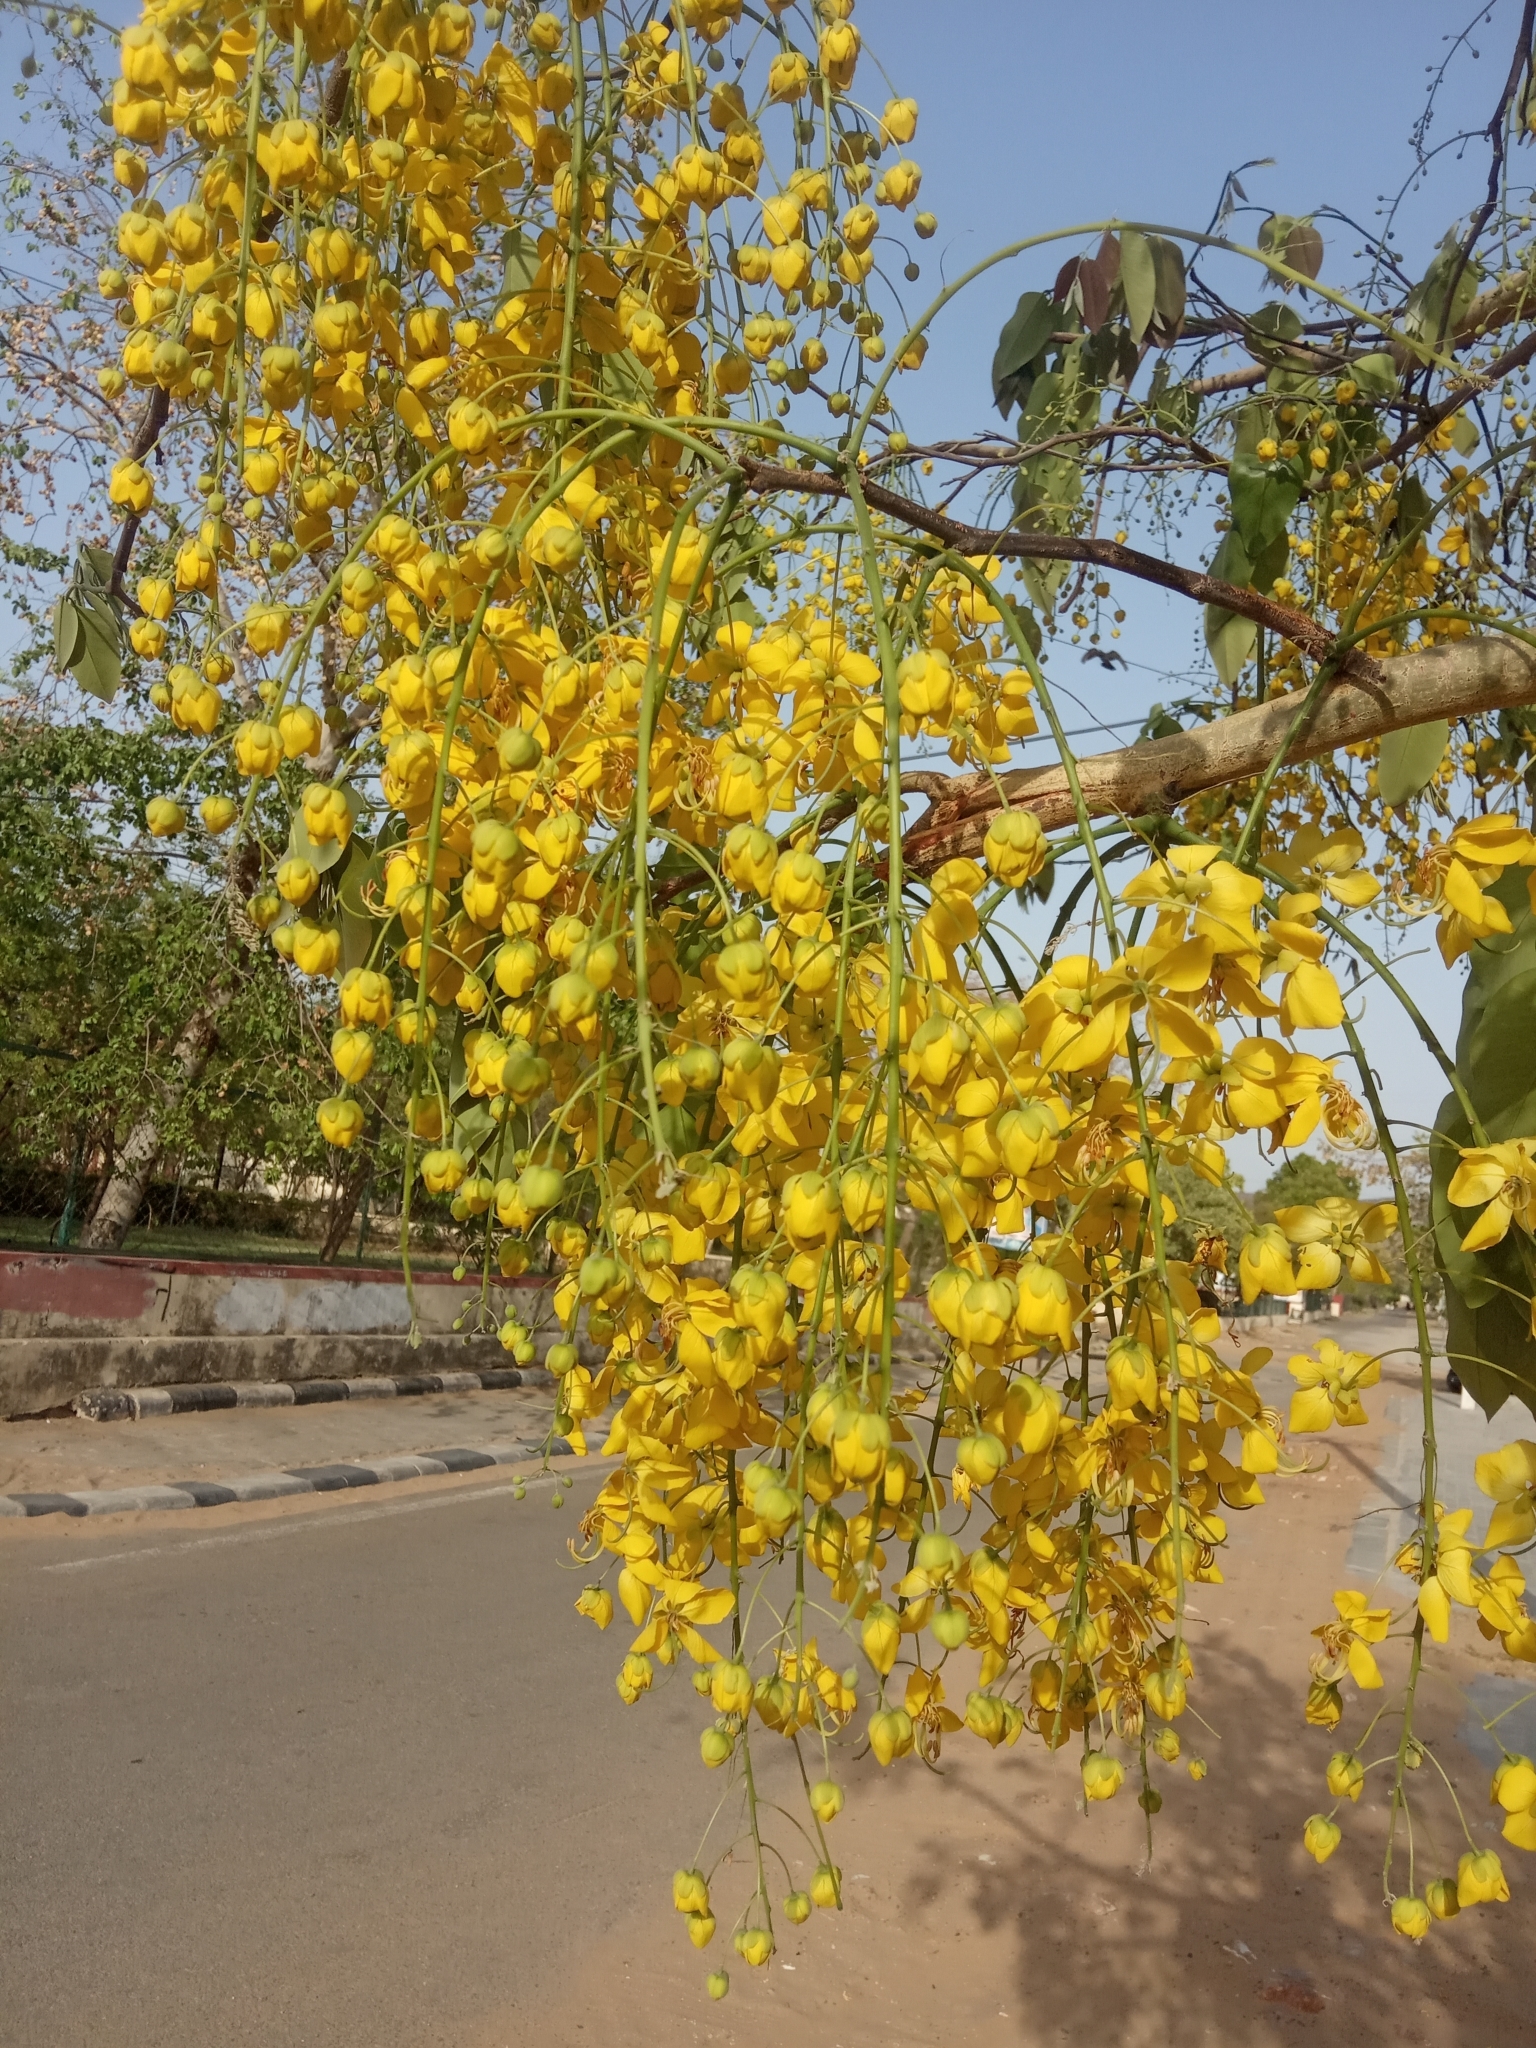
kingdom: Plantae
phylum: Tracheophyta
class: Magnoliopsida
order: Fabales
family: Fabaceae
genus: Cassia
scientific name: Cassia fistula
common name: Golden shower
